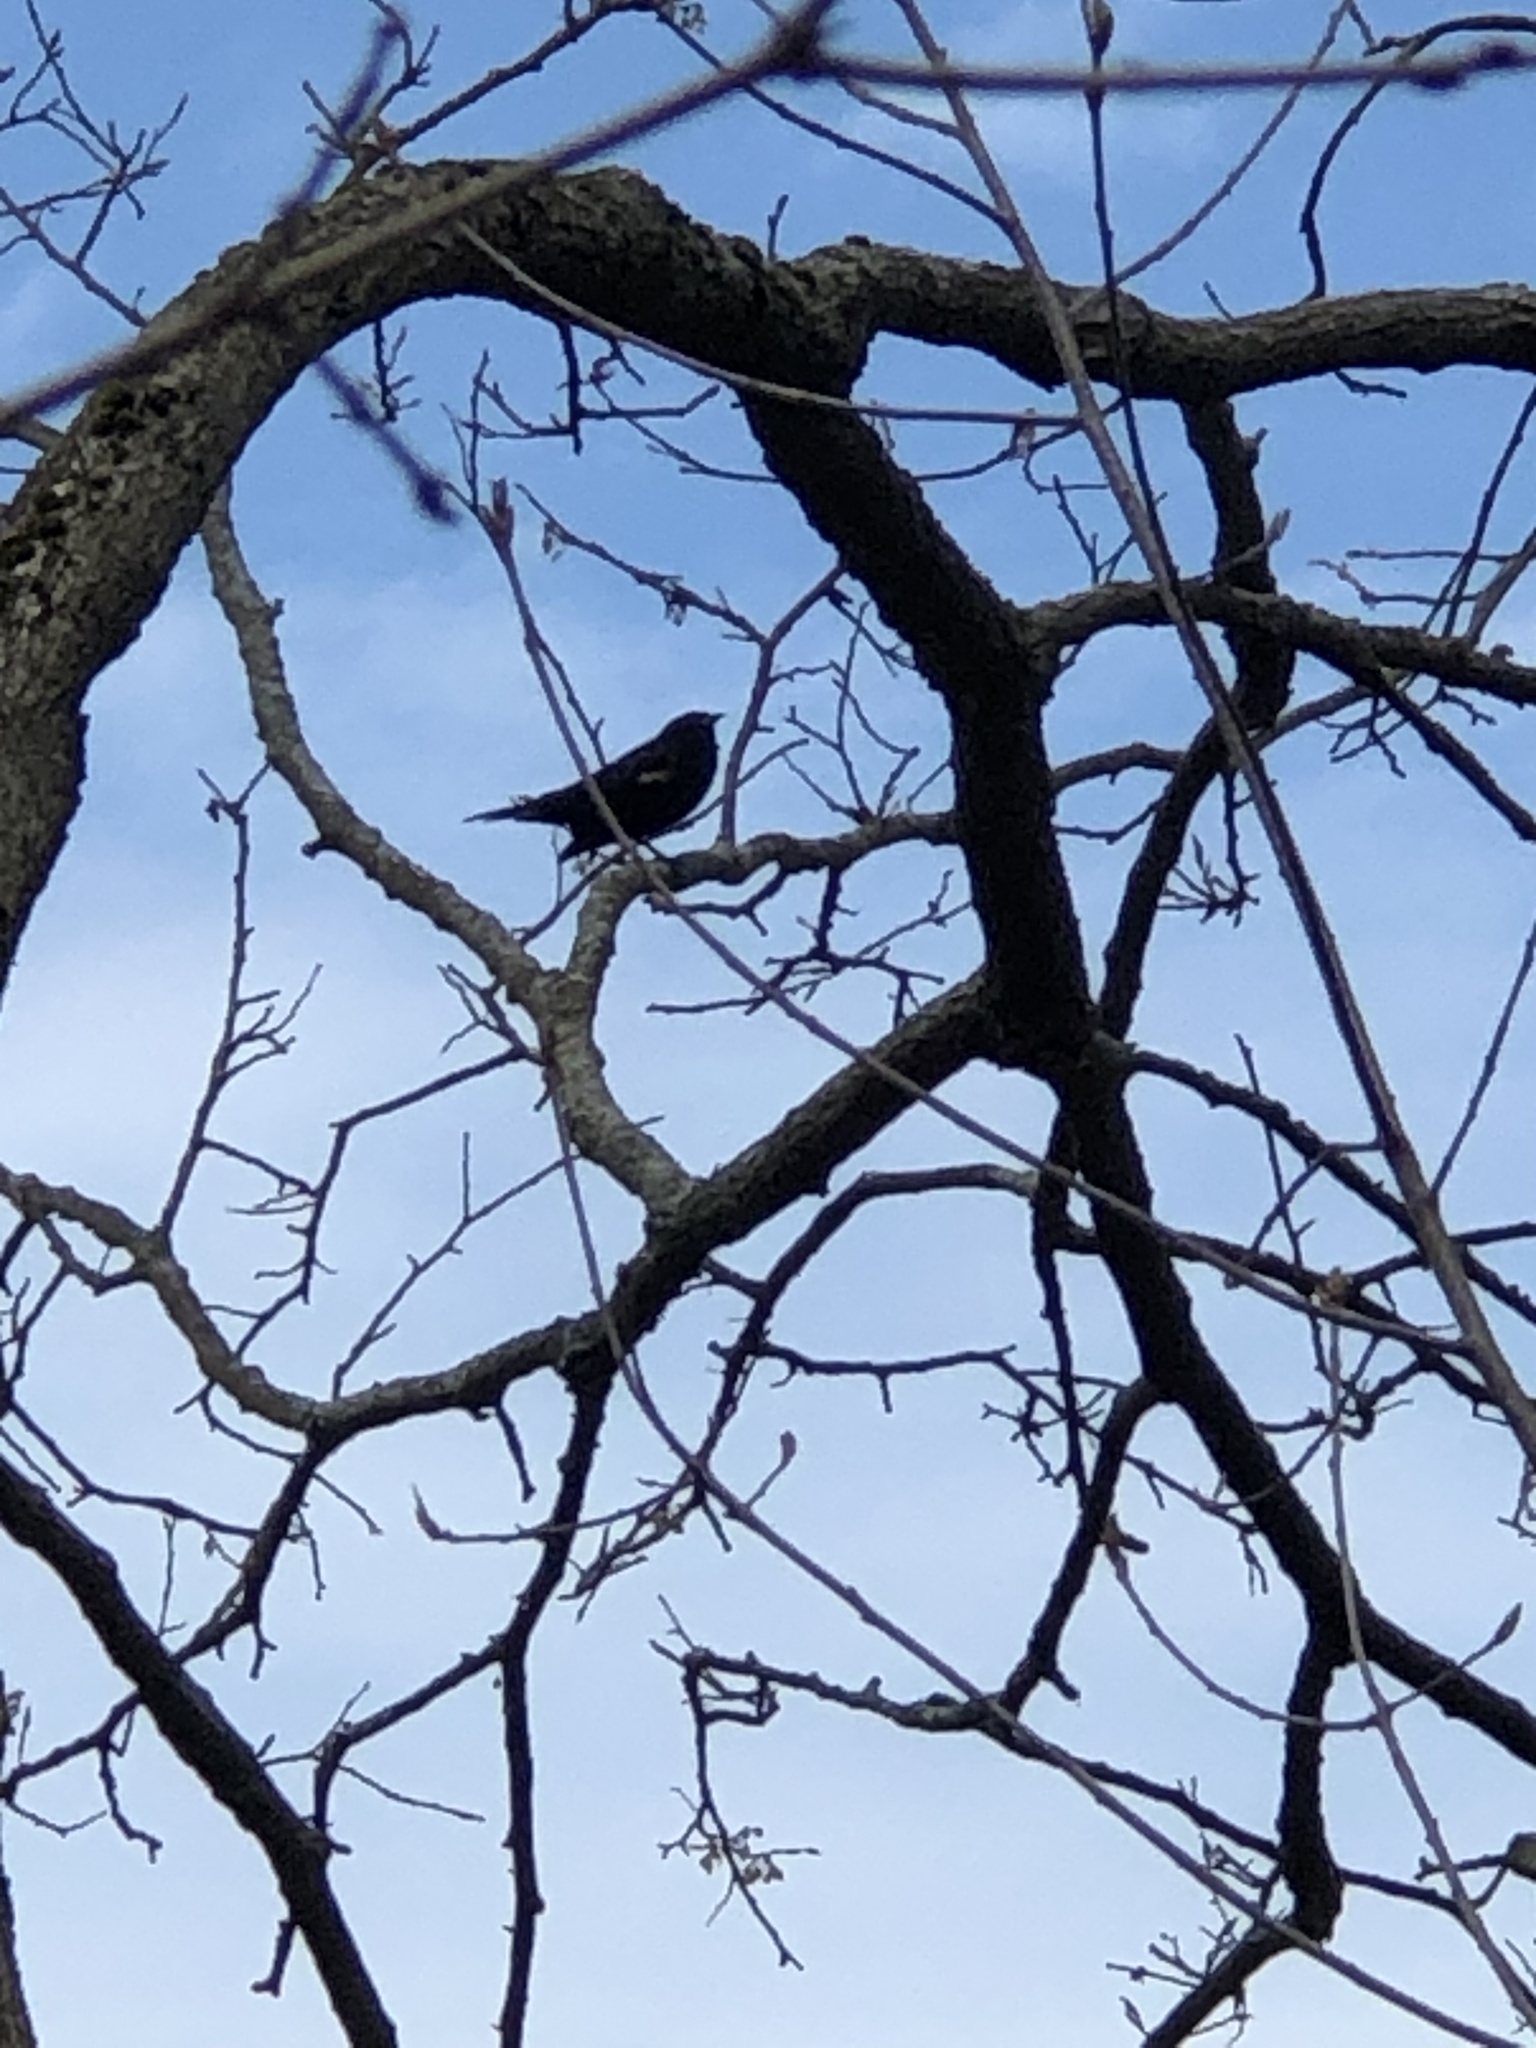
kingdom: Animalia
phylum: Chordata
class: Aves
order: Passeriformes
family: Icteridae
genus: Agelaius
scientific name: Agelaius phoeniceus
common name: Red-winged blackbird
